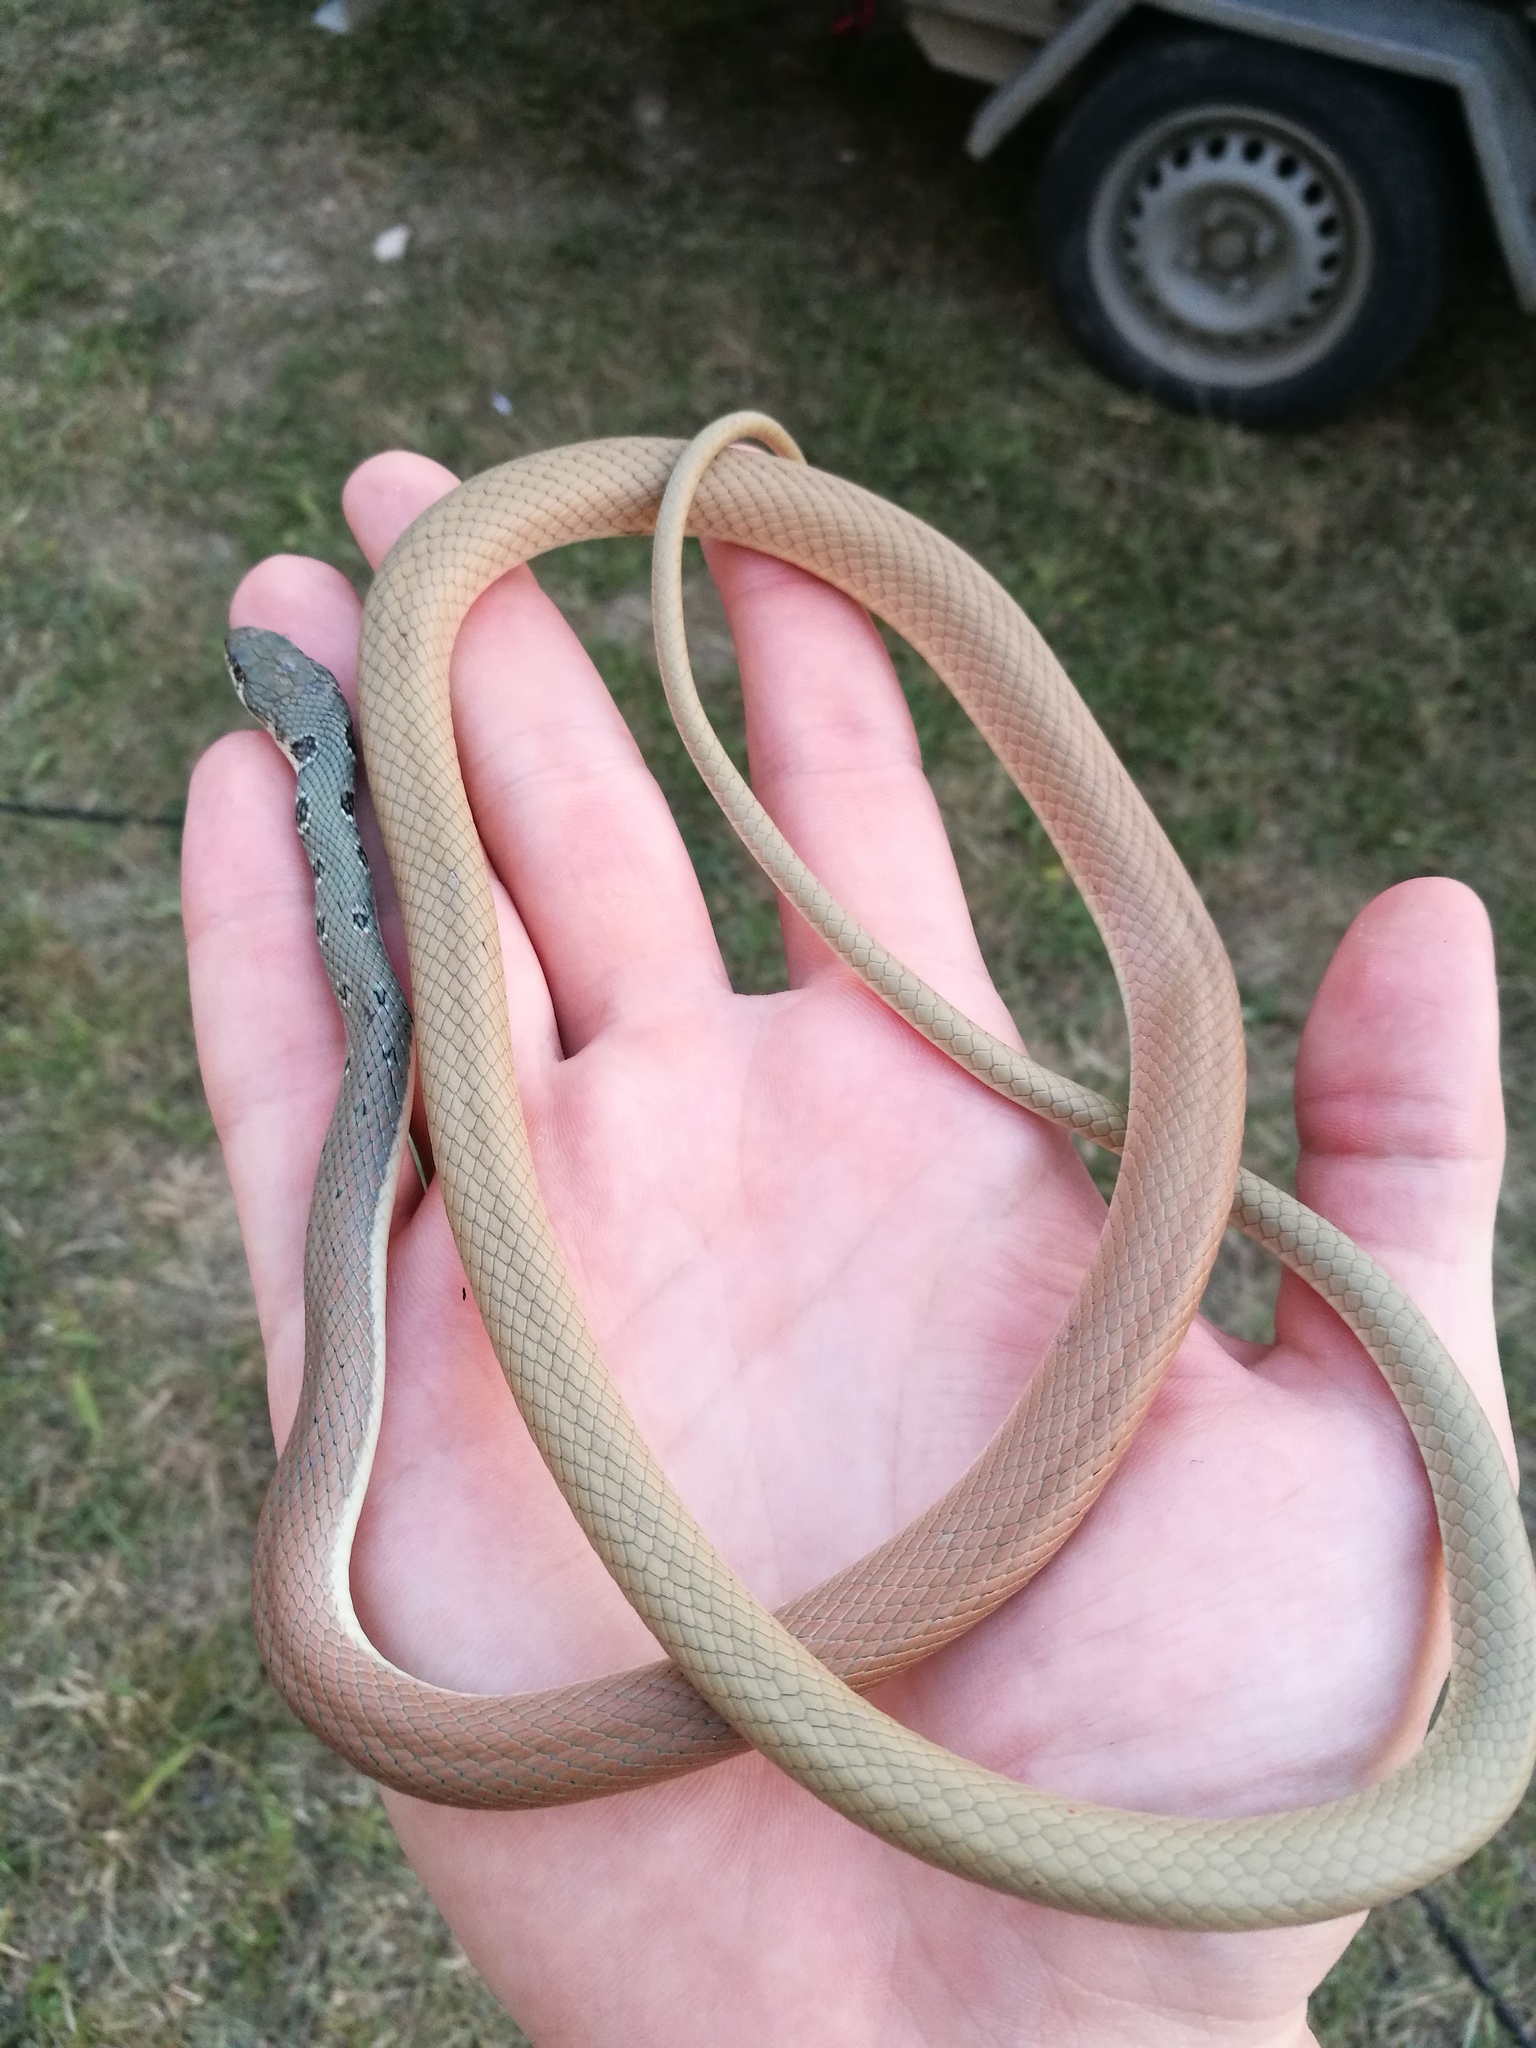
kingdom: Animalia
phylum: Chordata
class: Squamata
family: Colubridae
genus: Platyceps
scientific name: Platyceps najadum
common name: Dahl's whip snake
